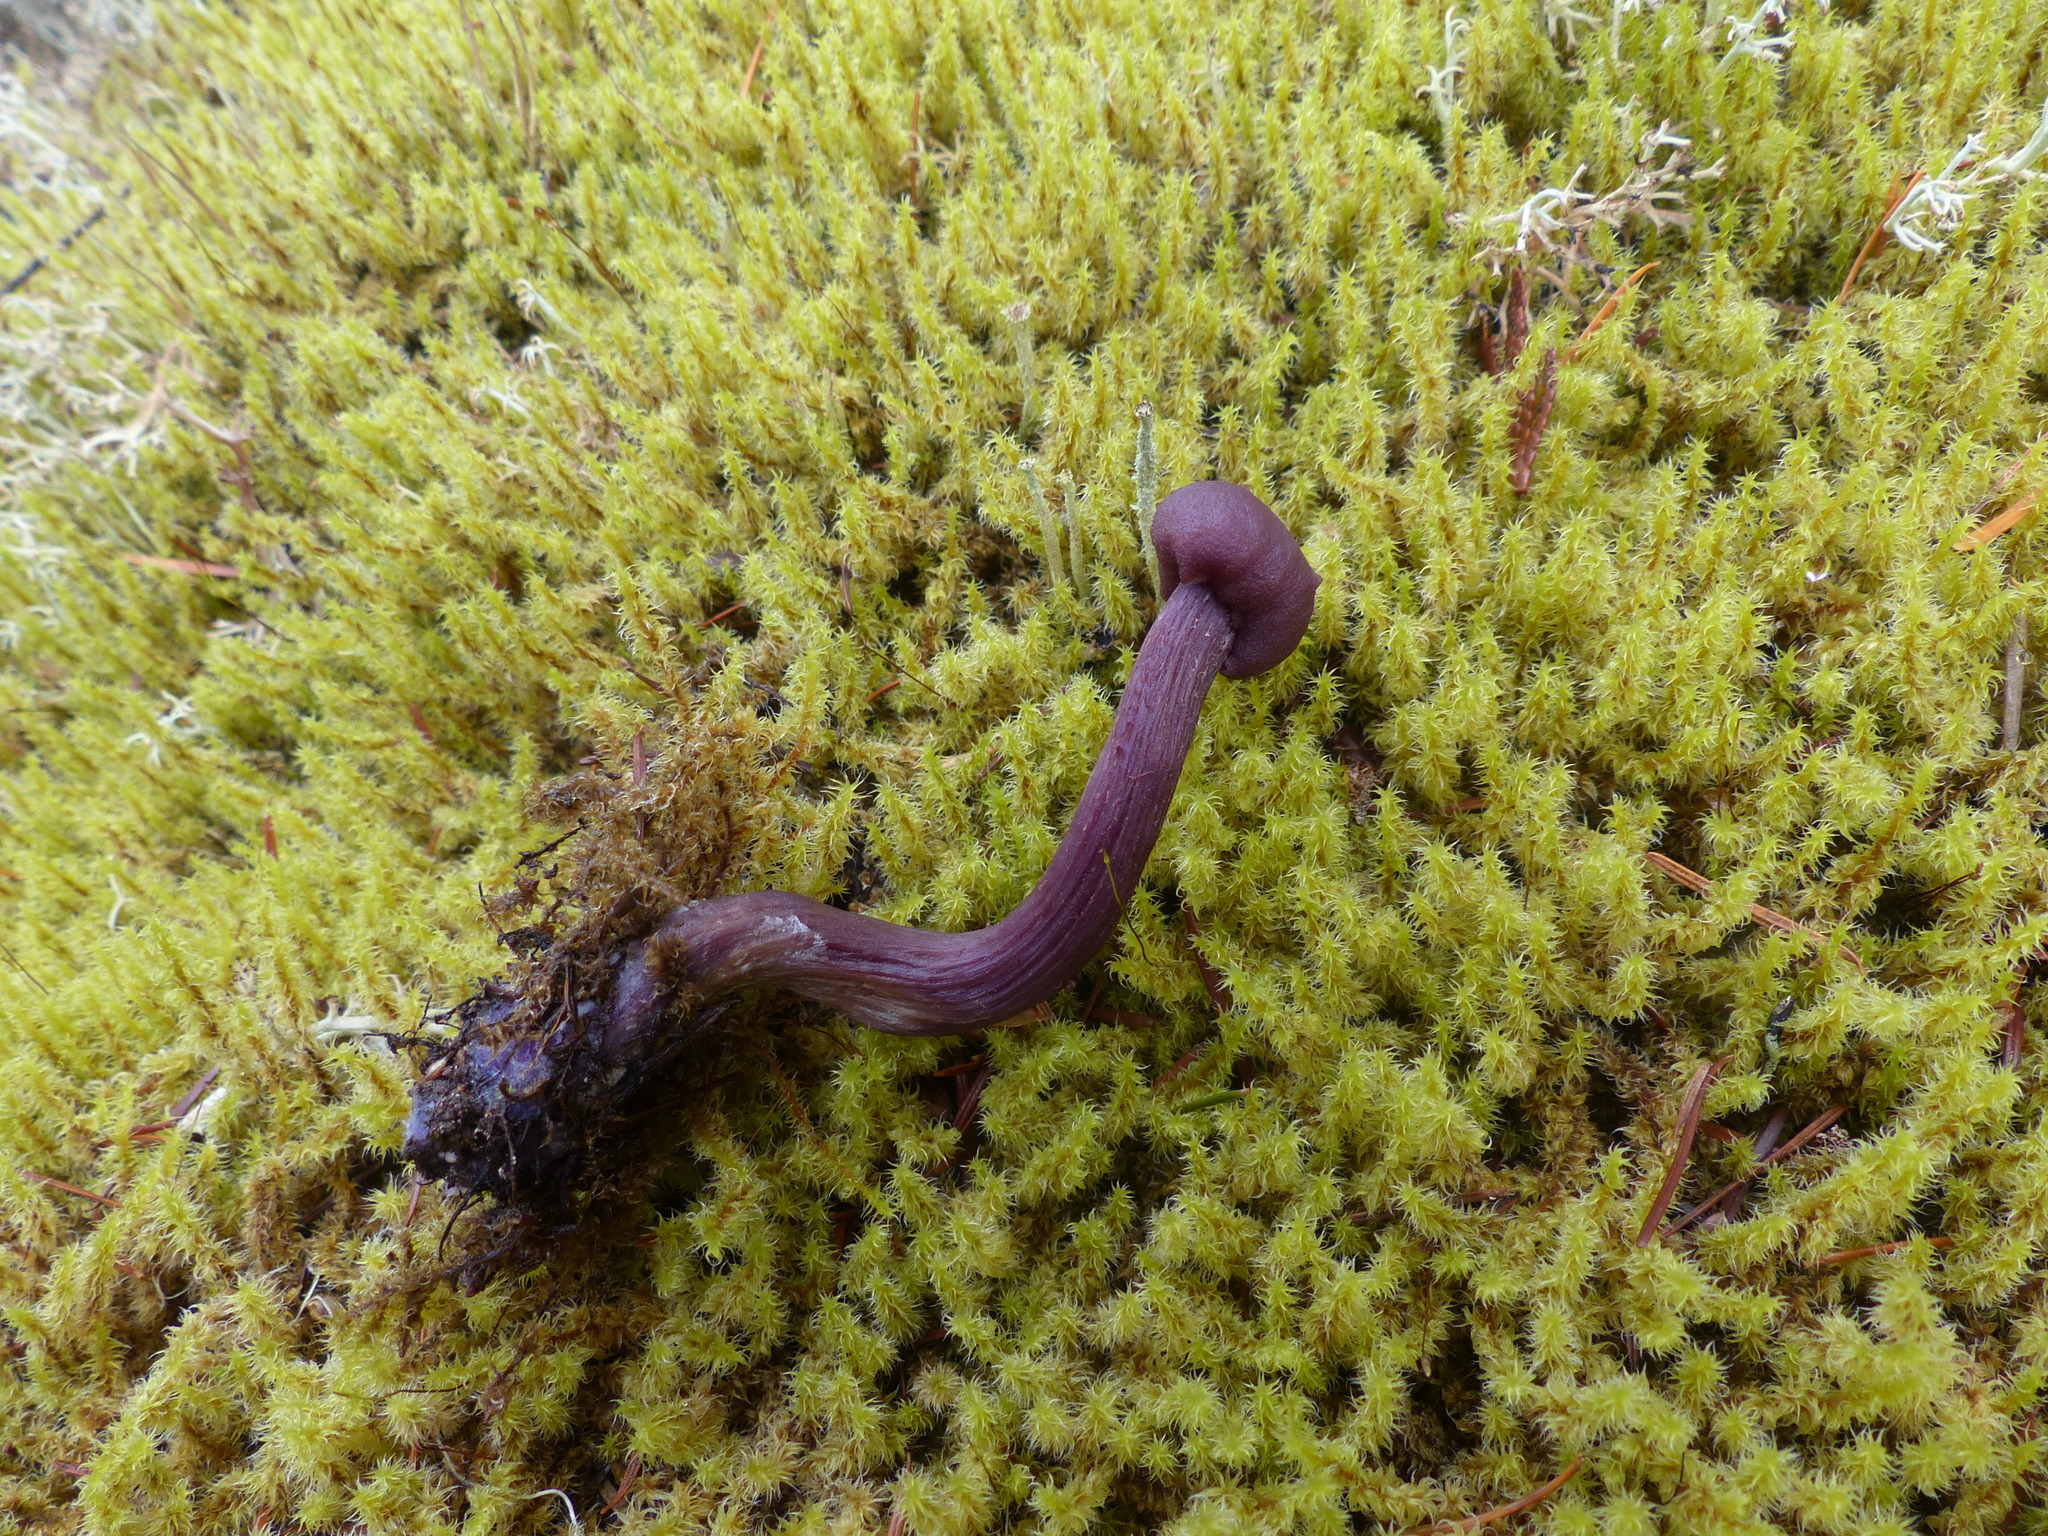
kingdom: Fungi
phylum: Basidiomycota
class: Agaricomycetes
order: Agaricales
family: Hydnangiaceae
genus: Laccaria
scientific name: Laccaria amethysteo-occidentalis
